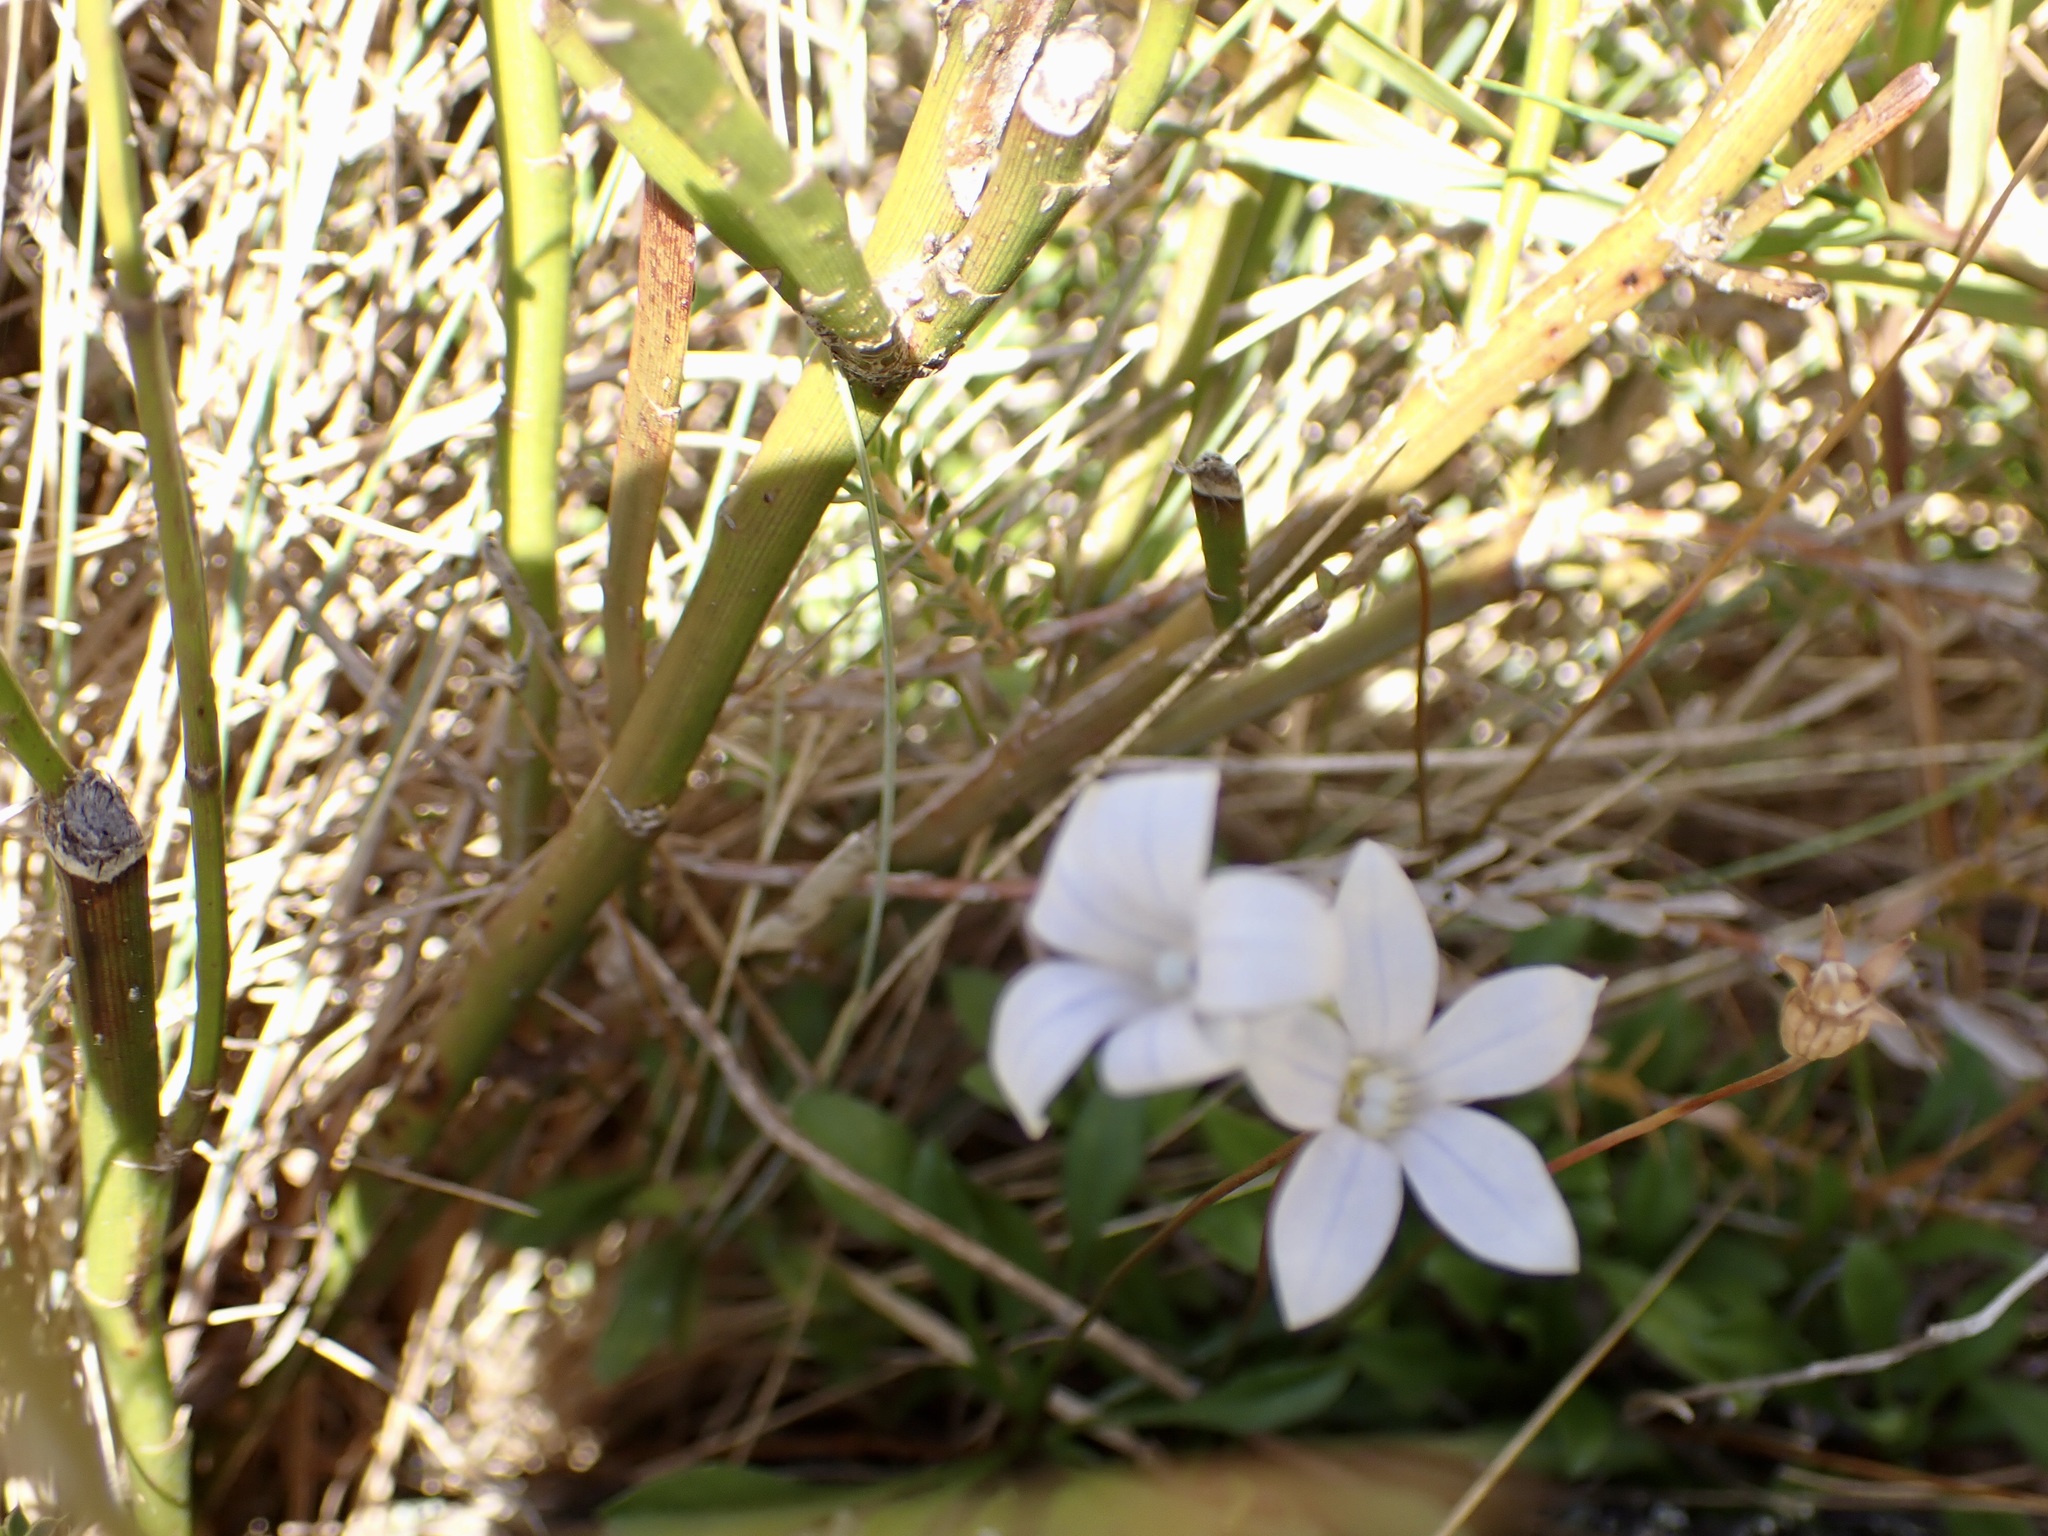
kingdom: Plantae
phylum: Tracheophyta
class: Magnoliopsida
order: Asterales
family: Campanulaceae
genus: Wahlenbergia
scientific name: Wahlenbergia albomarginata
